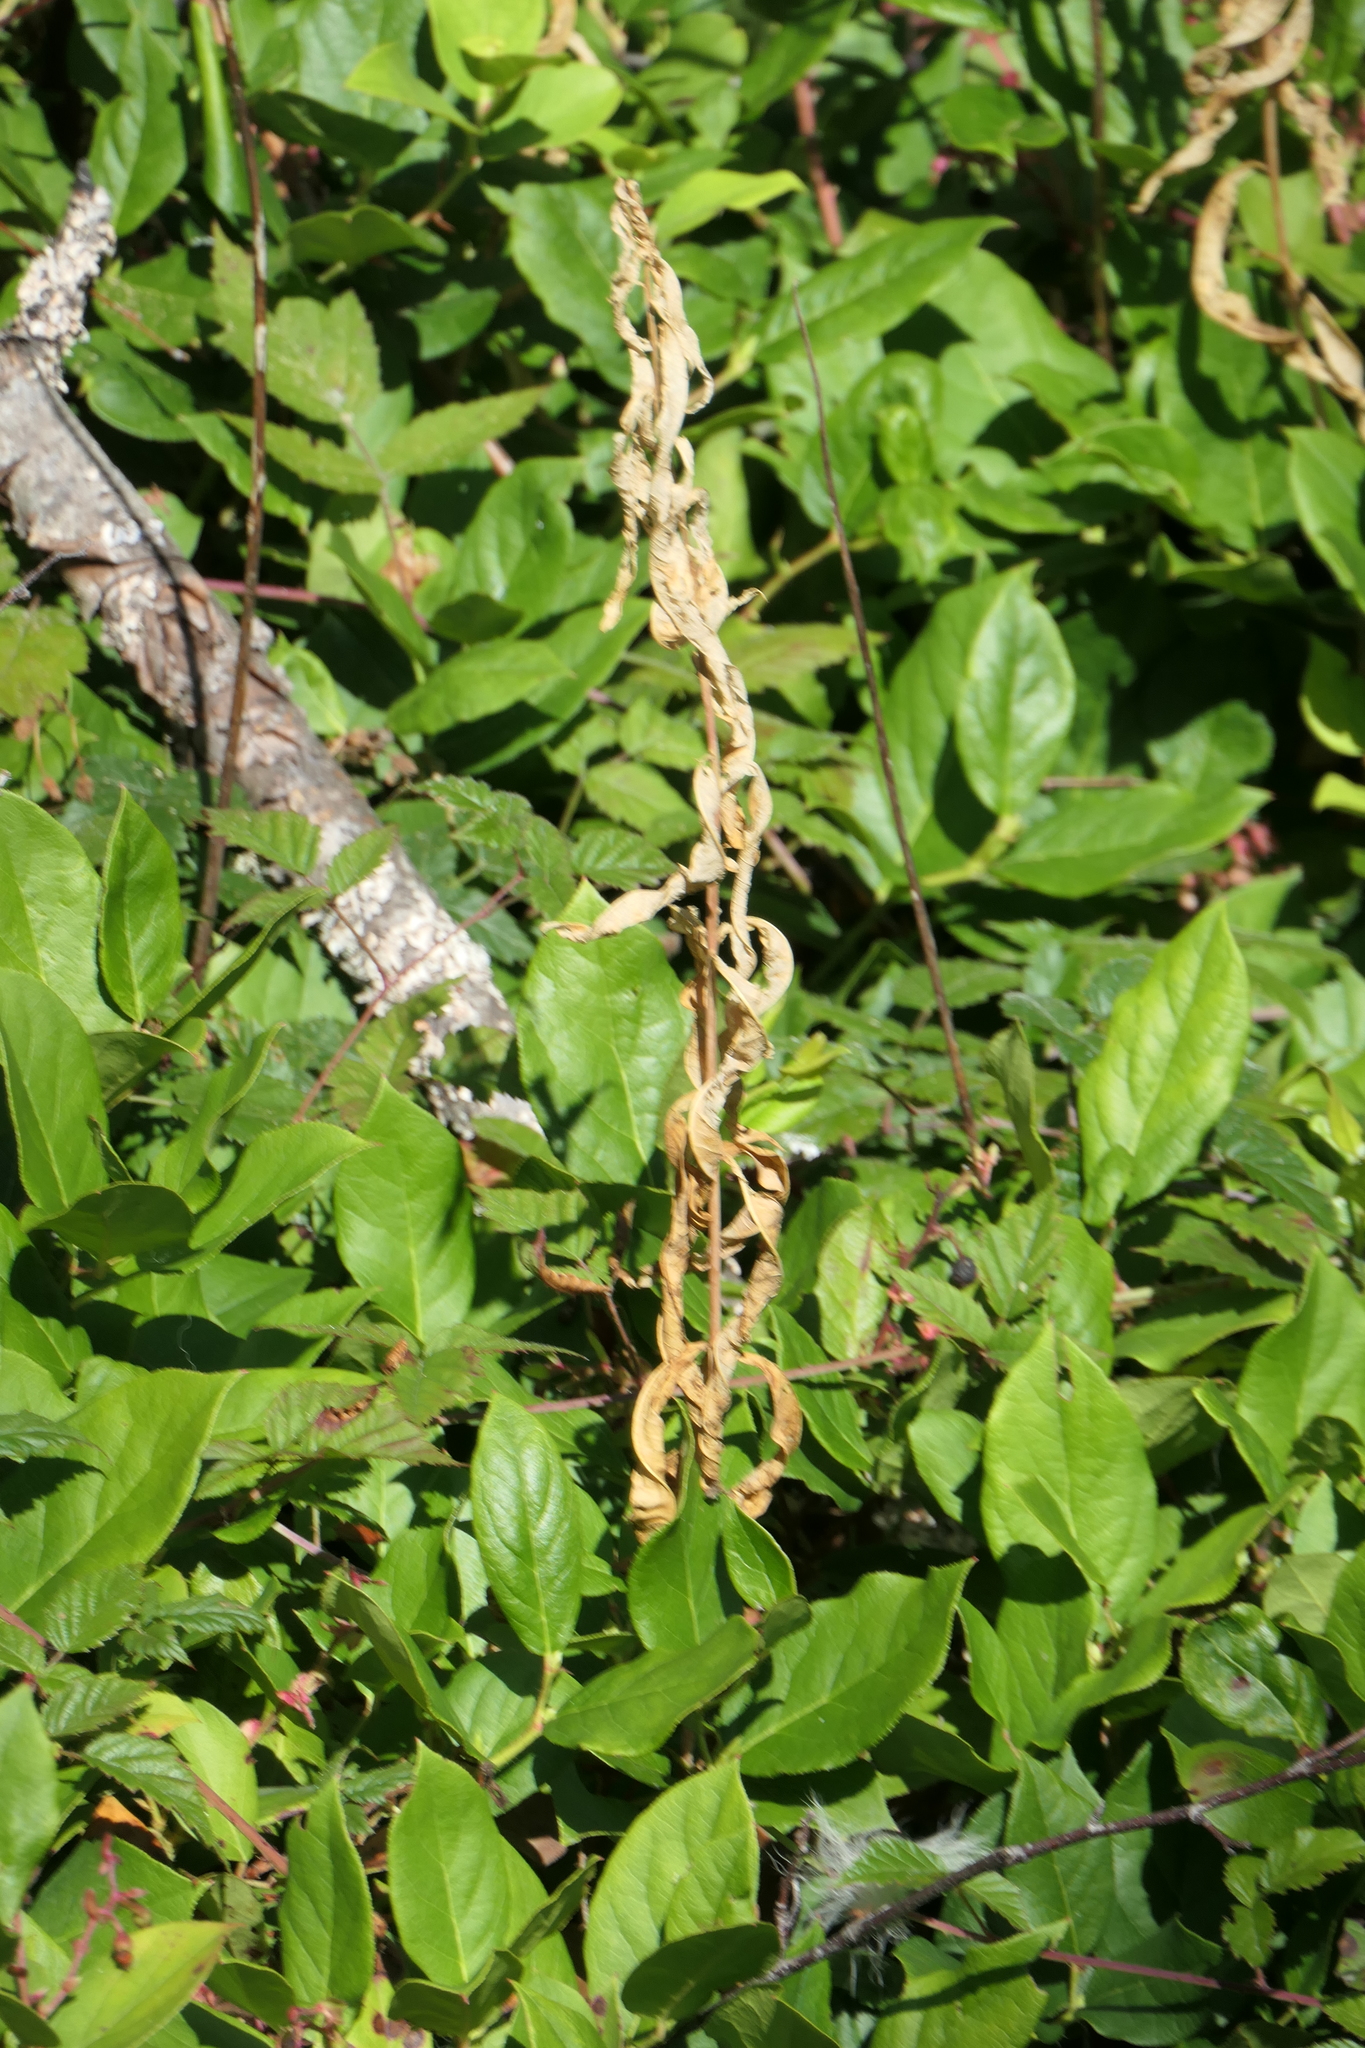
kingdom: Plantae
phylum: Tracheophyta
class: Magnoliopsida
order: Ericales
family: Ericaceae
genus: Gaultheria
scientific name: Gaultheria shallon
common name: Shallon
